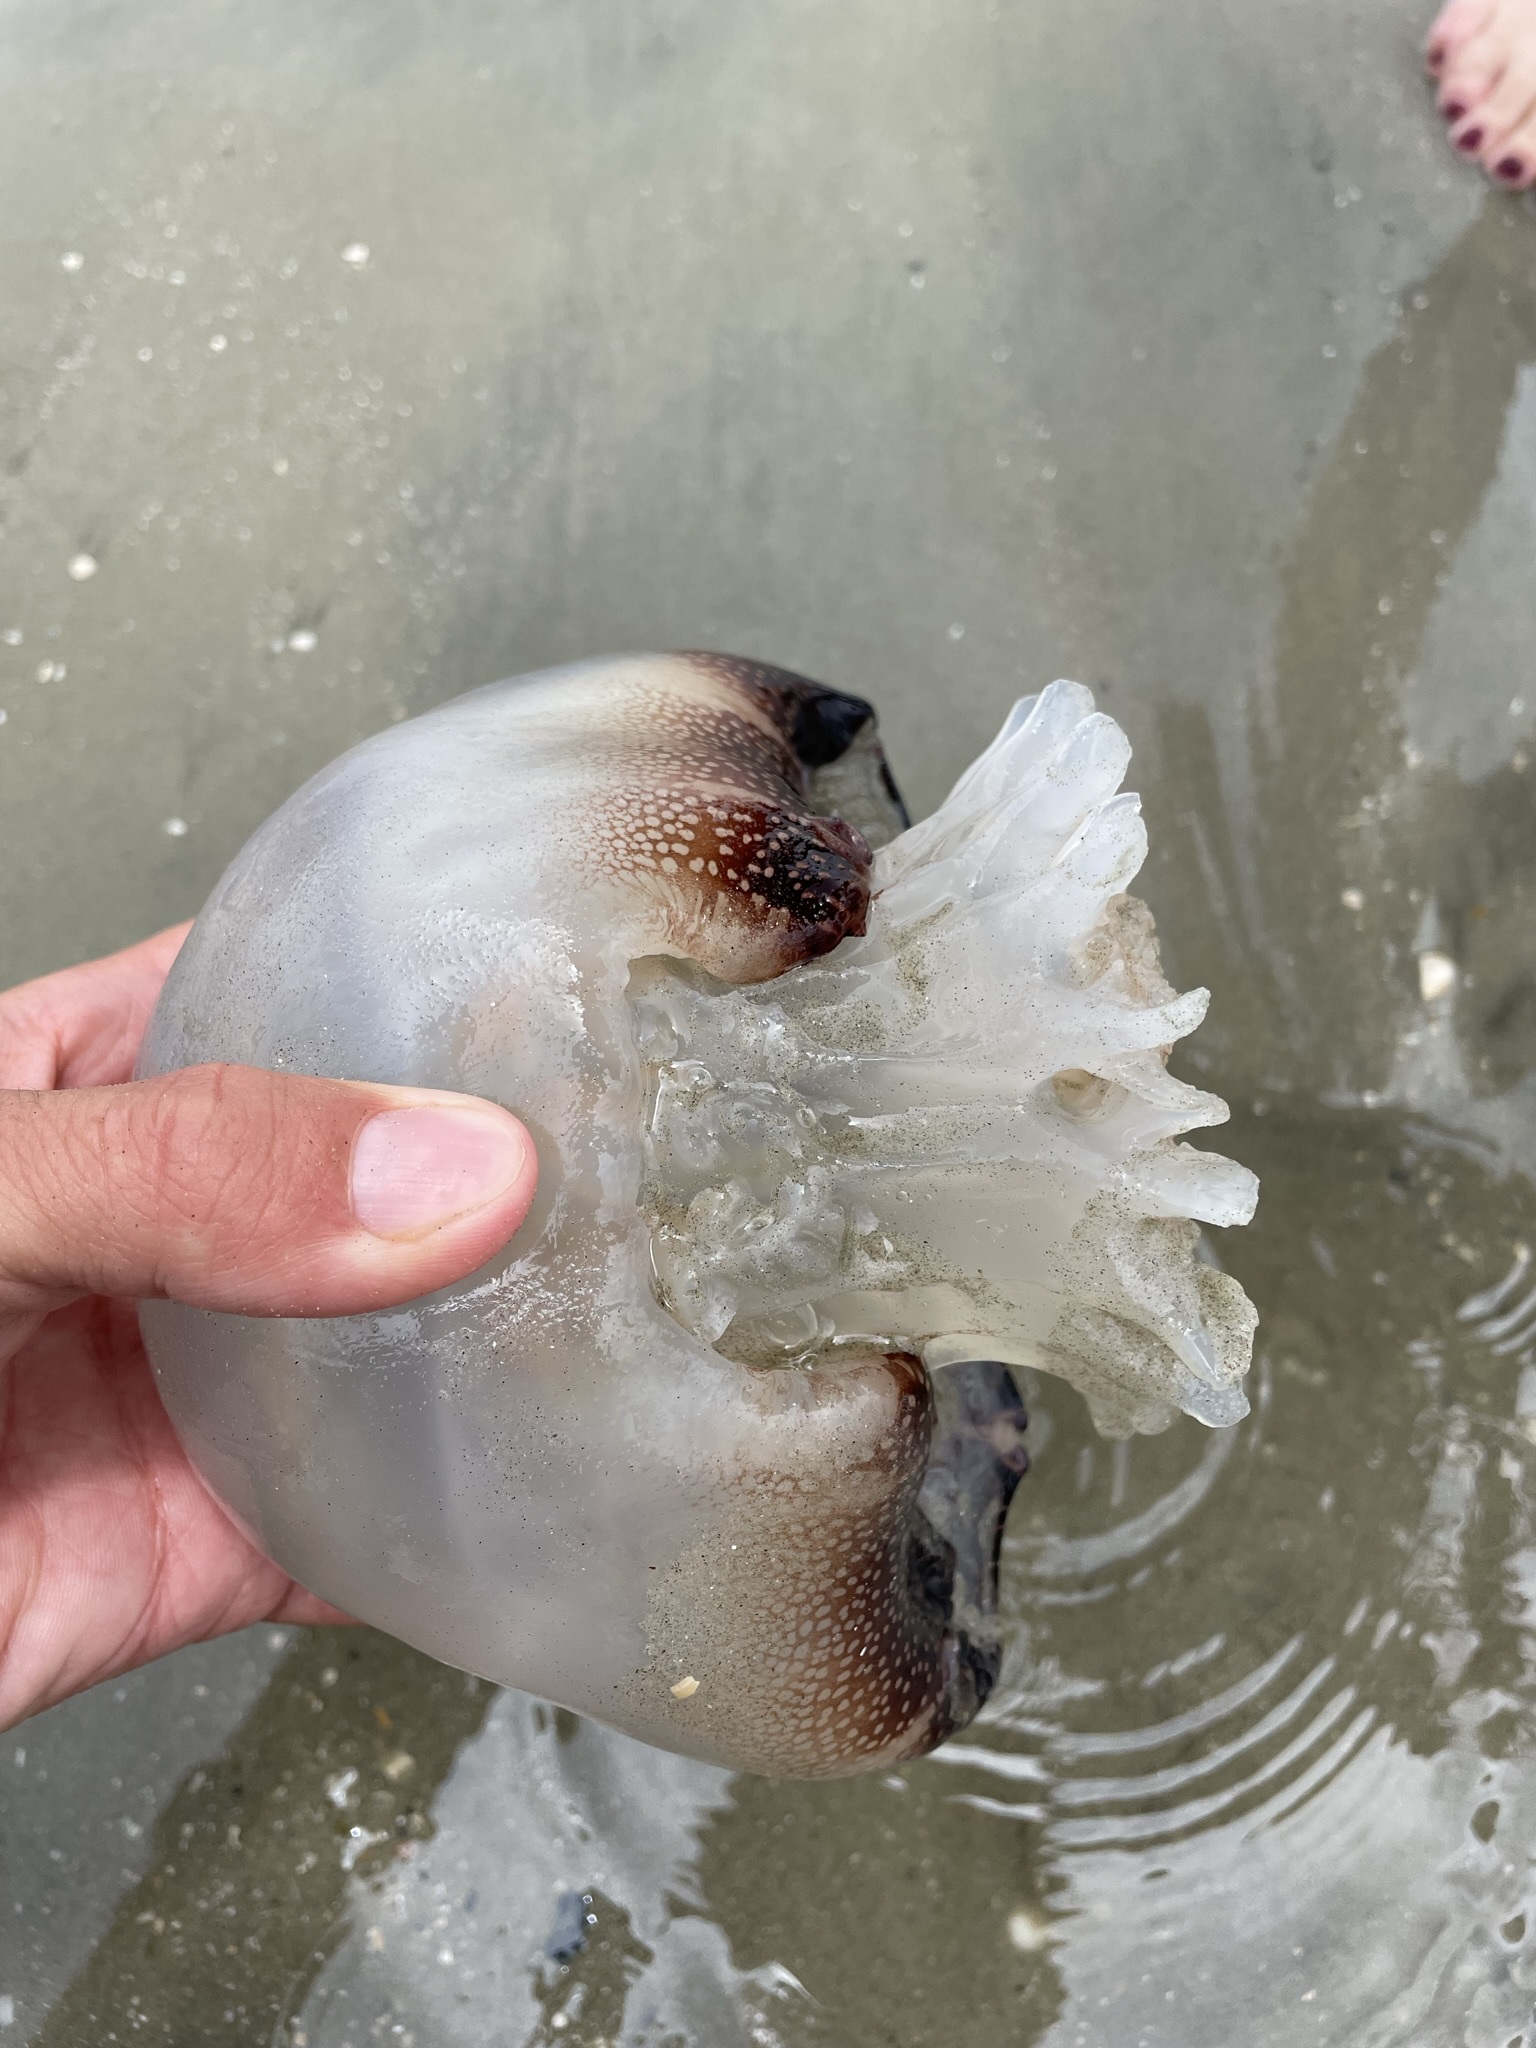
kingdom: Animalia
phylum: Cnidaria
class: Scyphozoa
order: Rhizostomeae
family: Stomolophidae
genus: Stomolophus
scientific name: Stomolophus meleagris
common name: Cabbagehead
